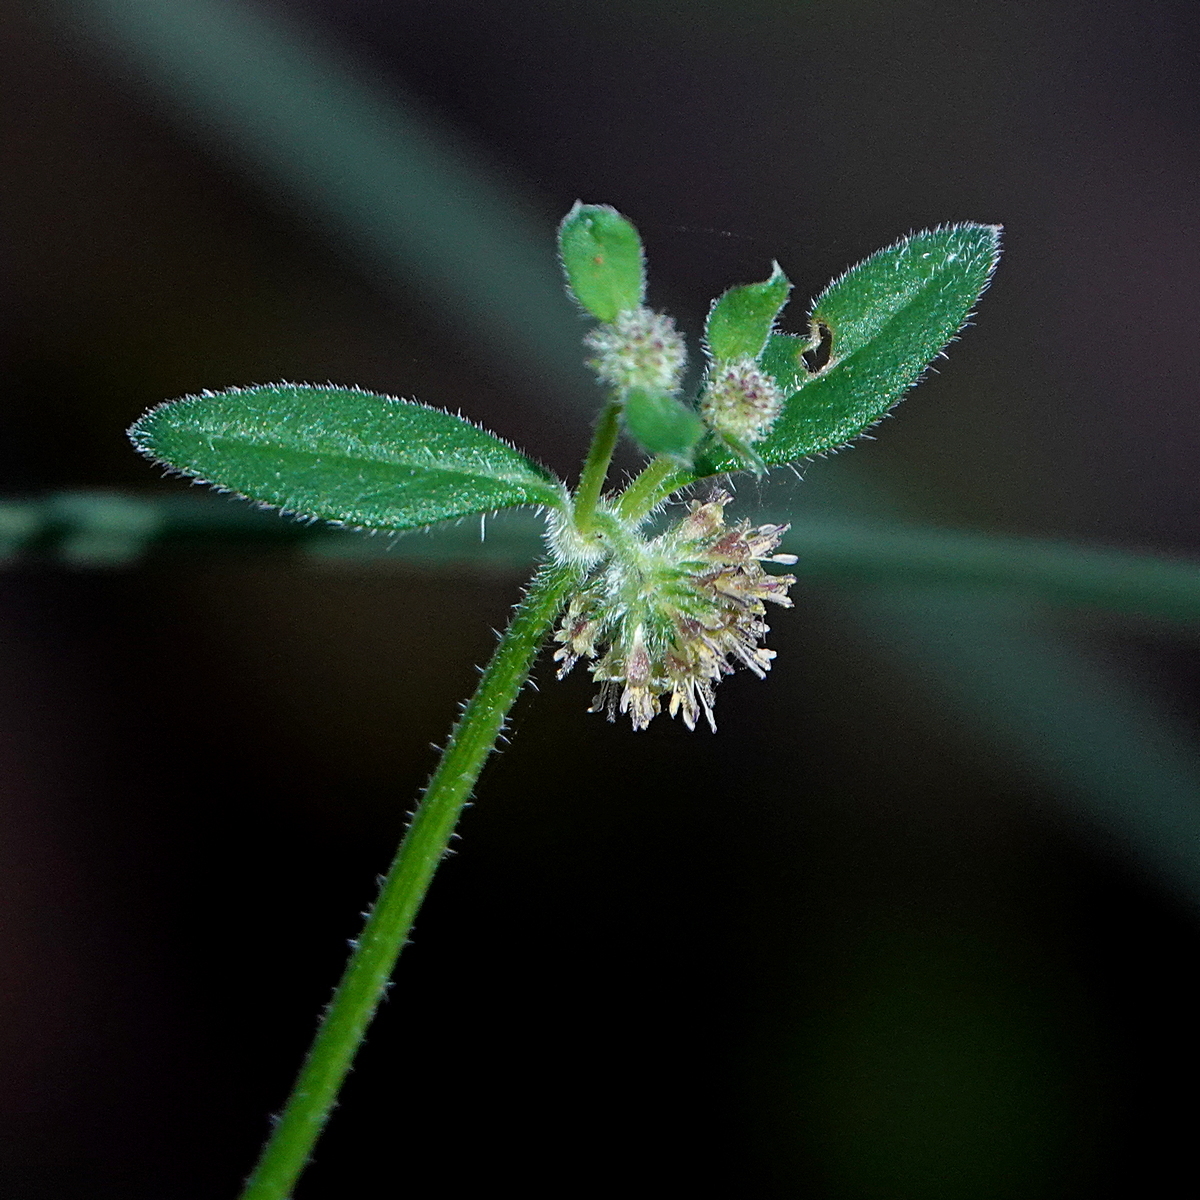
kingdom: Plantae
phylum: Tracheophyta
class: Magnoliopsida
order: Gentianales
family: Rubiaceae
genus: Opercularia
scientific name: Opercularia aspera
